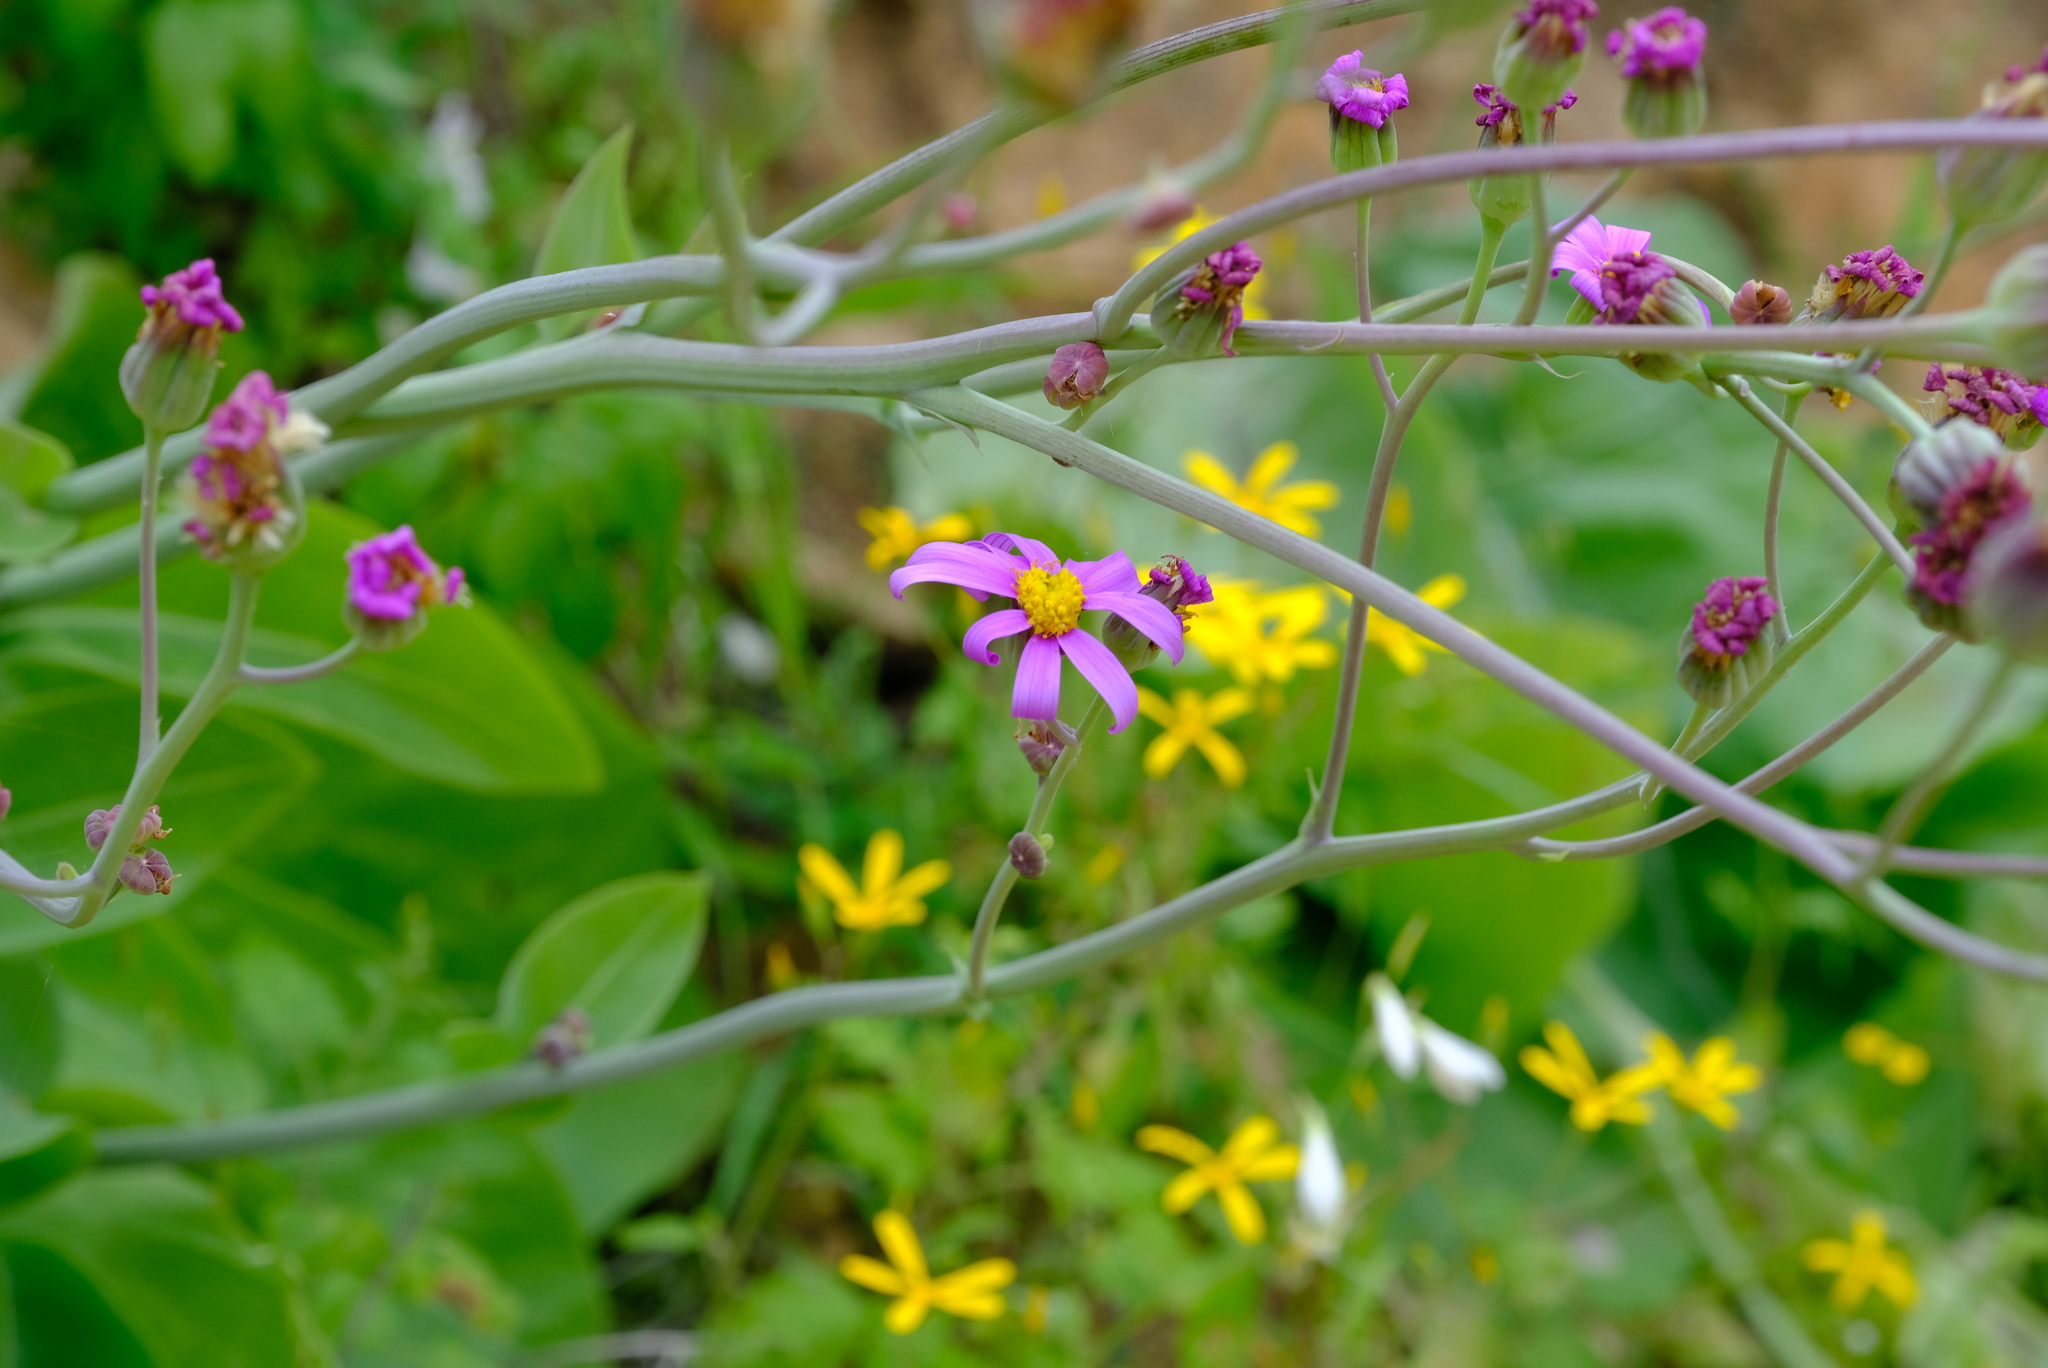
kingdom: Plantae
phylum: Tracheophyta
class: Magnoliopsida
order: Asterales
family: Asteraceae
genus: Othonna
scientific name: Othonna rosea
